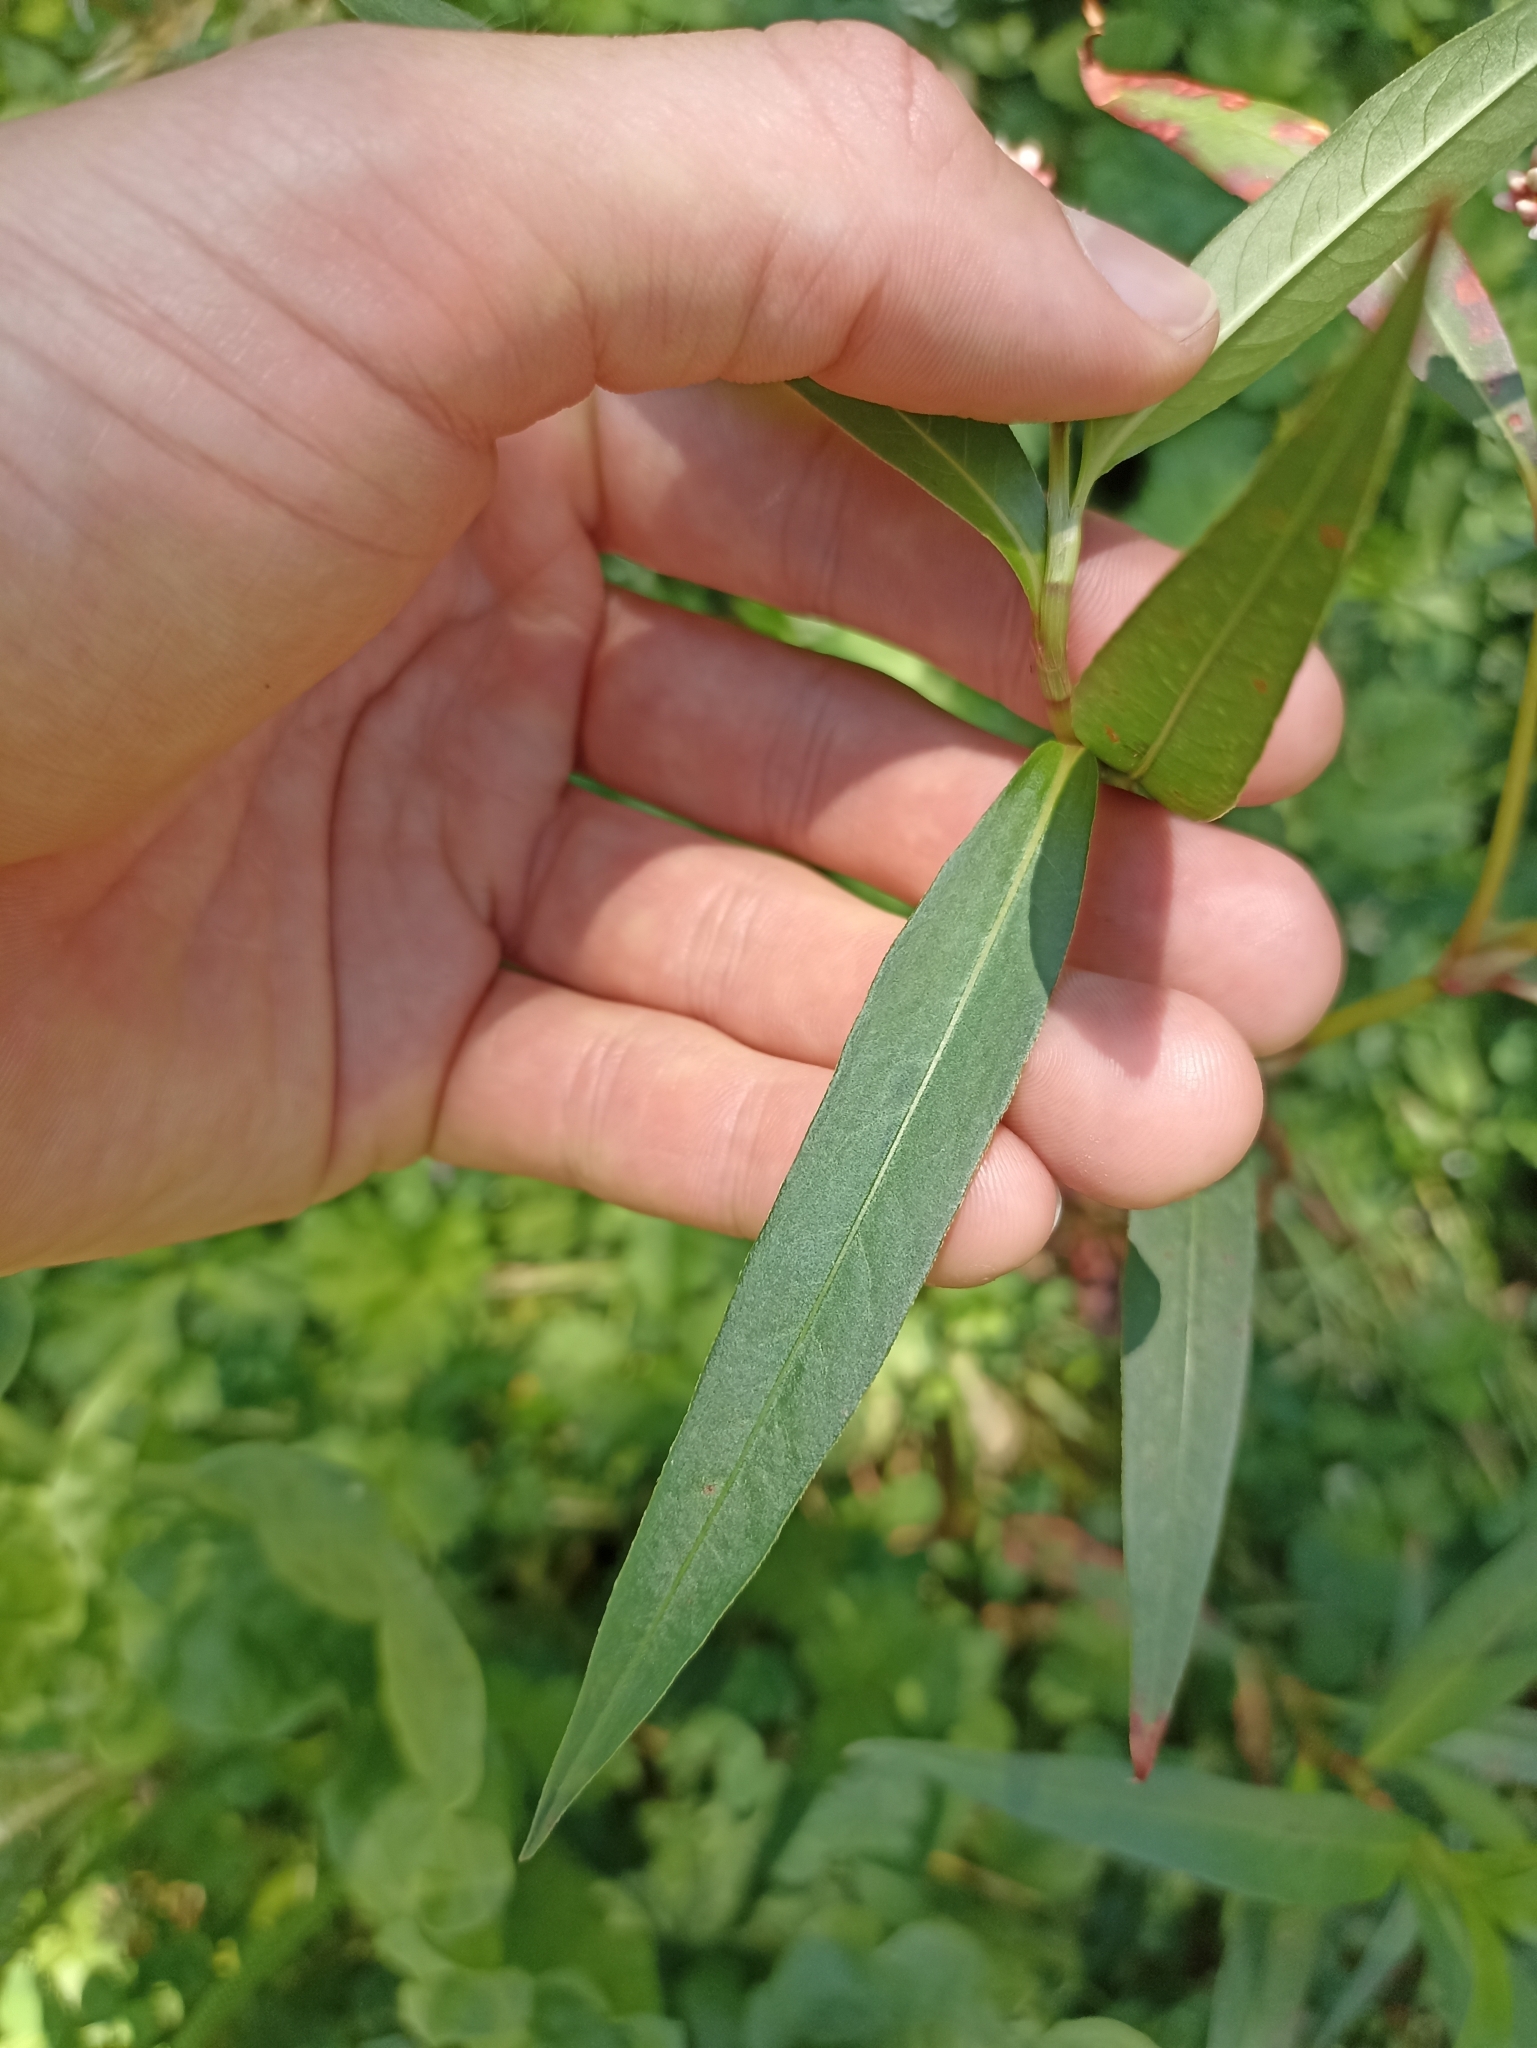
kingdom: Plantae
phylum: Tracheophyta
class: Magnoliopsida
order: Caryophyllales
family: Polygonaceae
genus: Persicaria
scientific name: Persicaria decipiens
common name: Willow-weed
